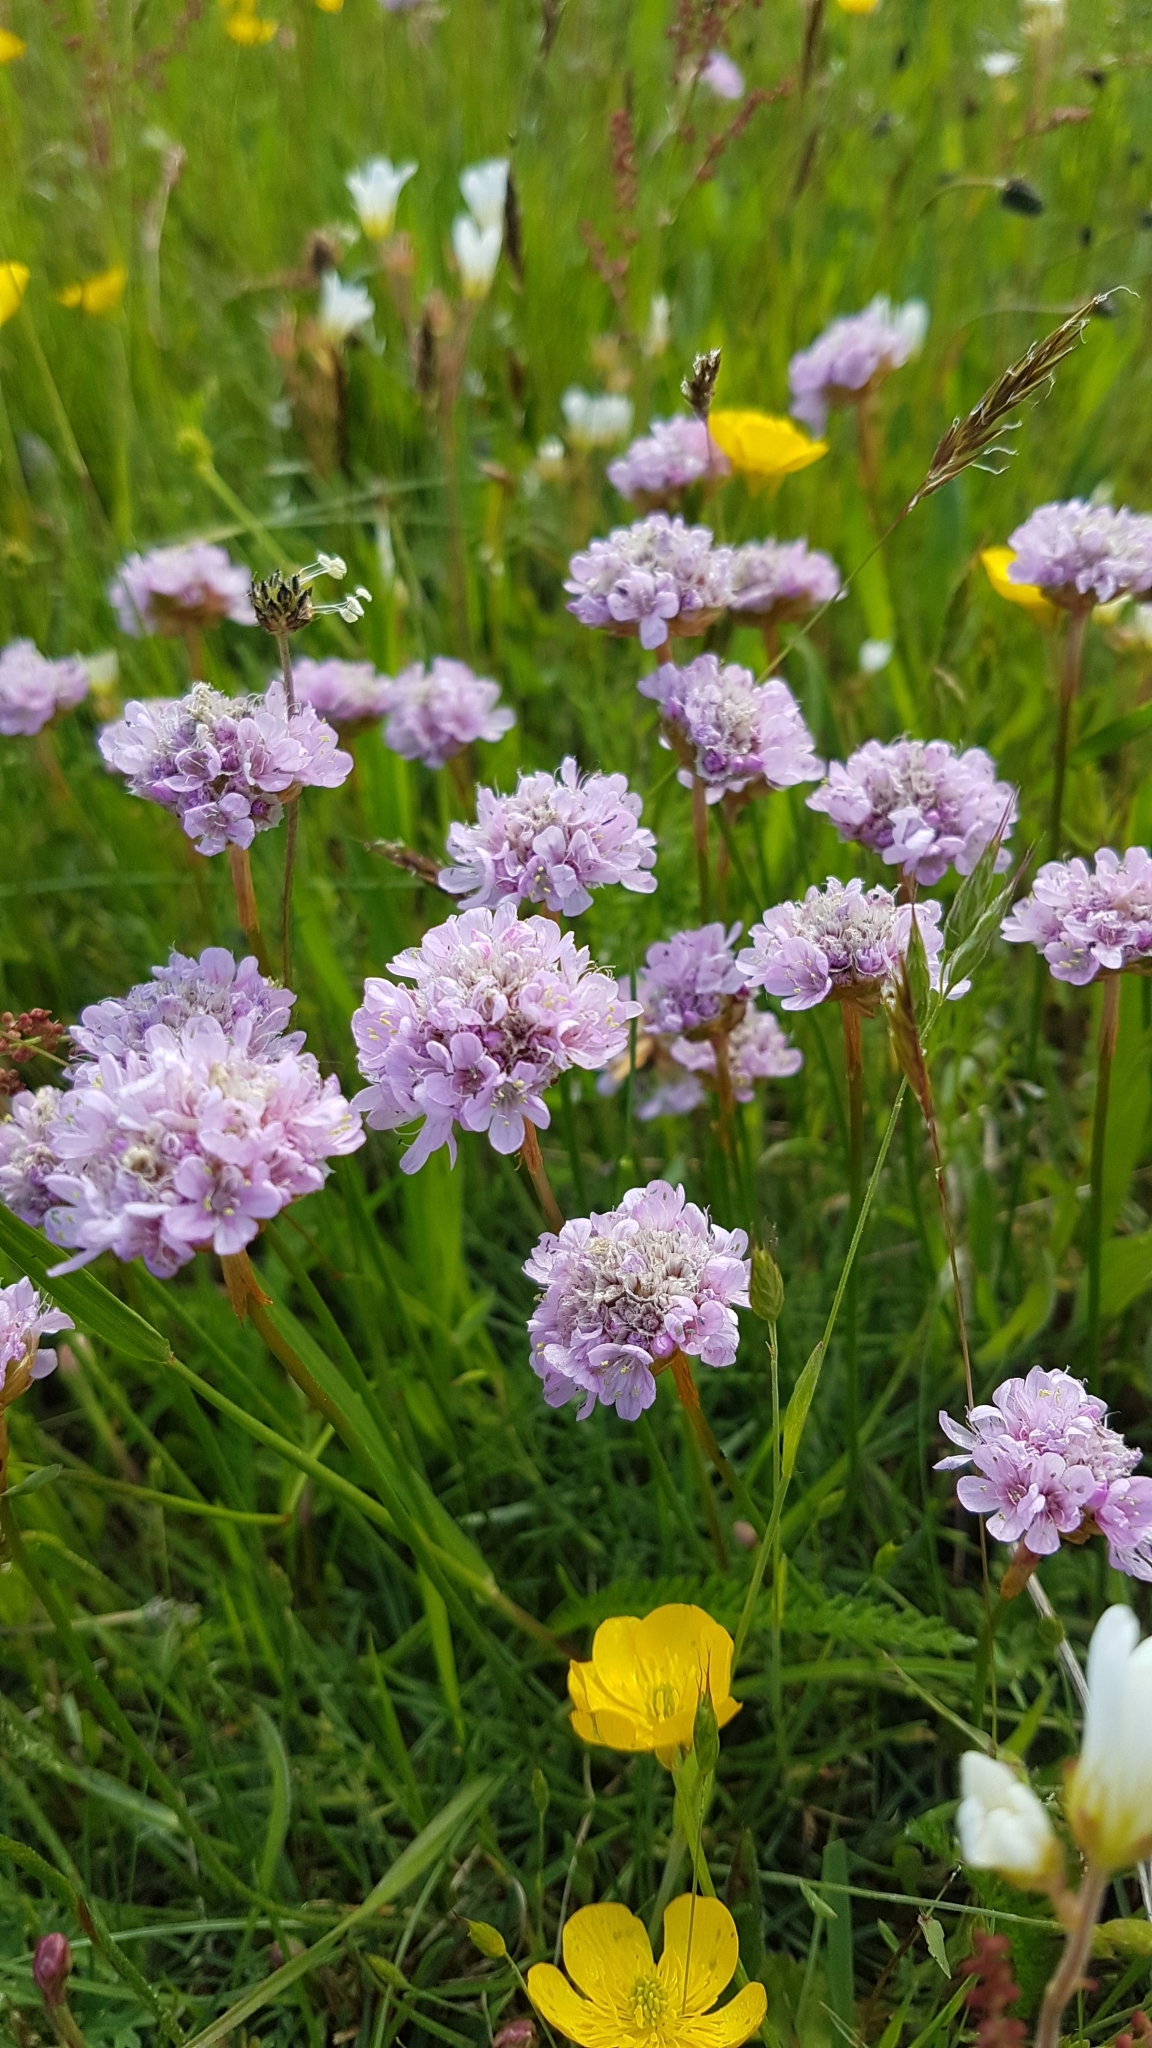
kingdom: Plantae
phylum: Tracheophyta
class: Magnoliopsida
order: Caryophyllales
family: Plumbaginaceae
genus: Armeria
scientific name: Armeria maritima
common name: Thrift
